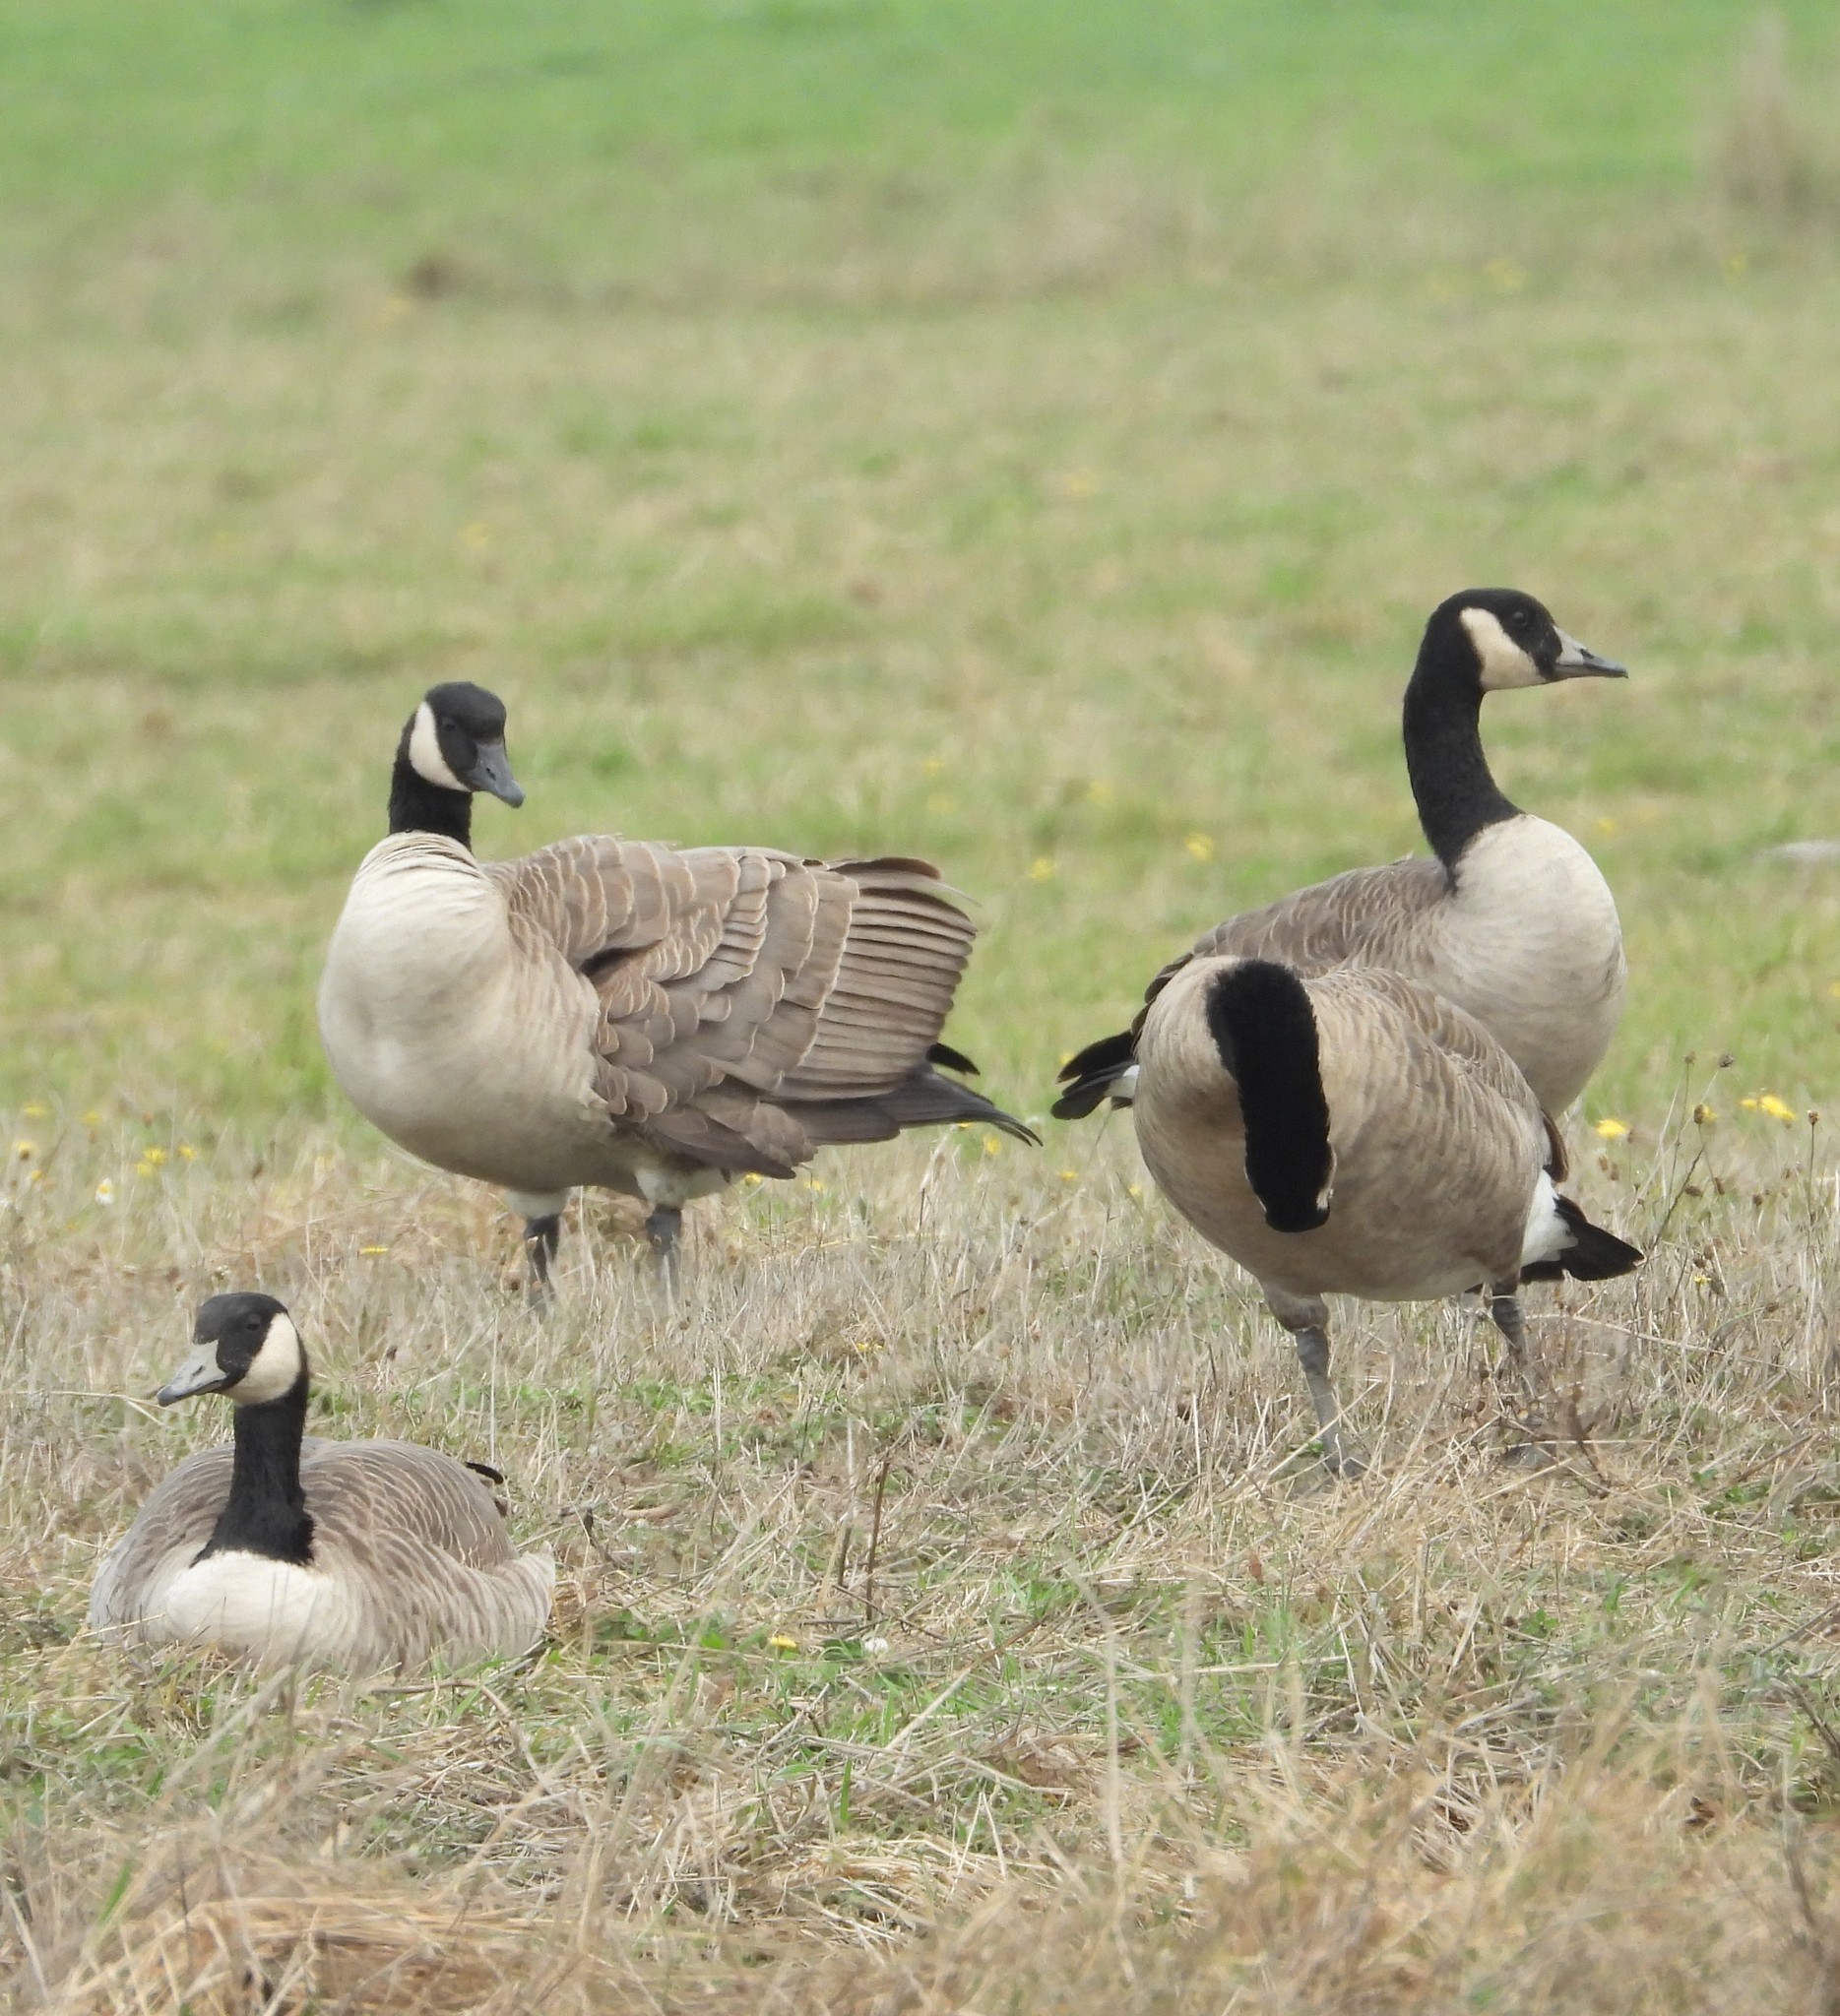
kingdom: Animalia
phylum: Chordata
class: Aves
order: Anseriformes
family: Anatidae
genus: Branta
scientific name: Branta canadensis
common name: Canada goose
